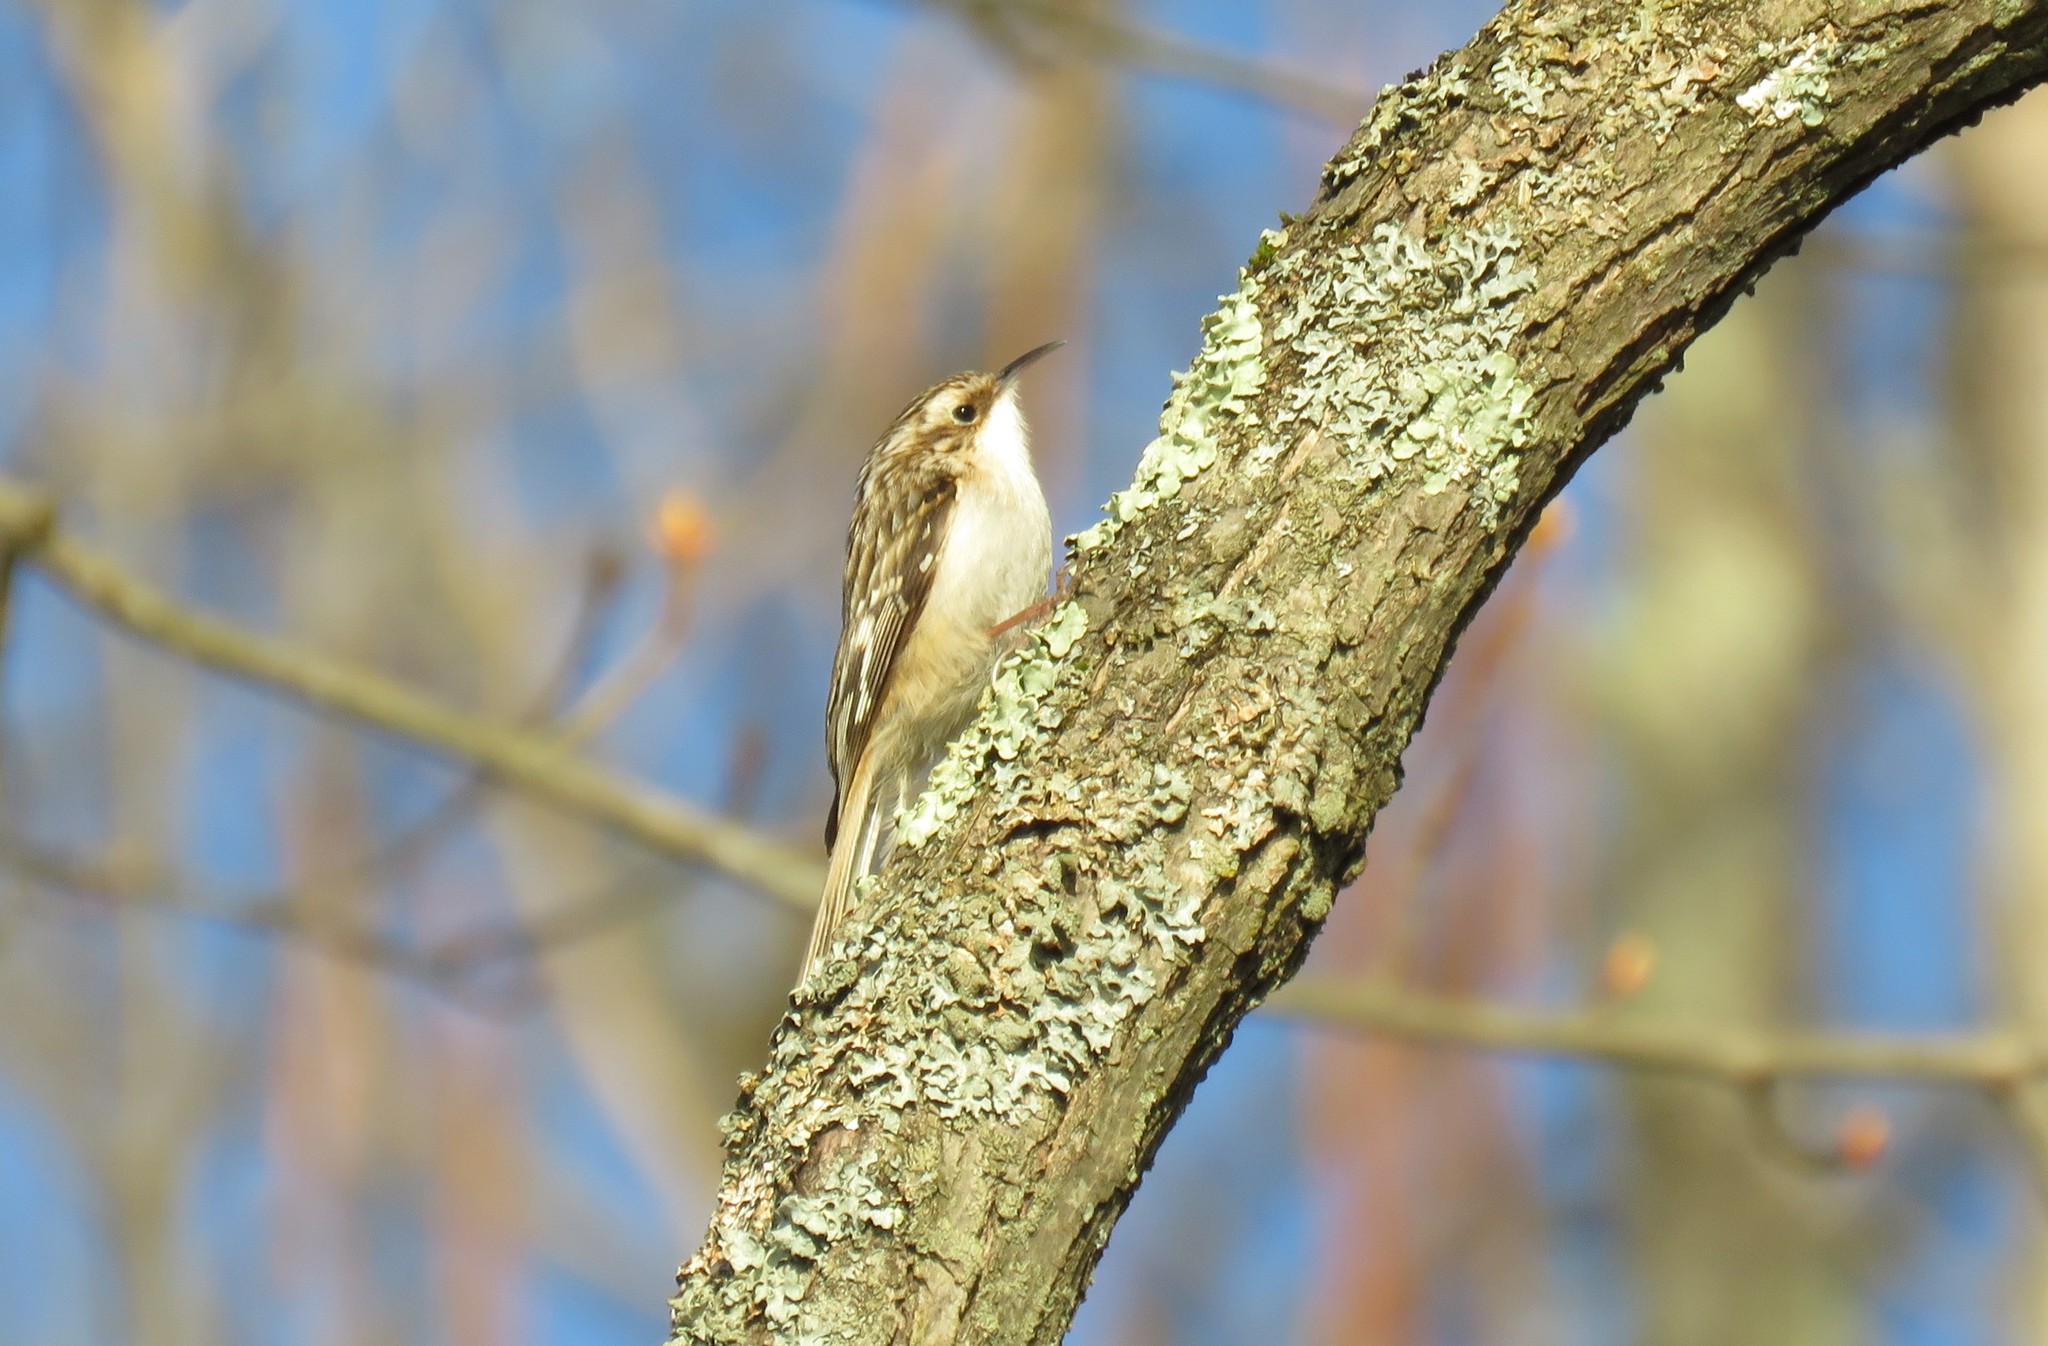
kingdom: Animalia
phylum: Chordata
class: Aves
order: Passeriformes
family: Certhiidae
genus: Certhia
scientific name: Certhia americana
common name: Brown creeper
